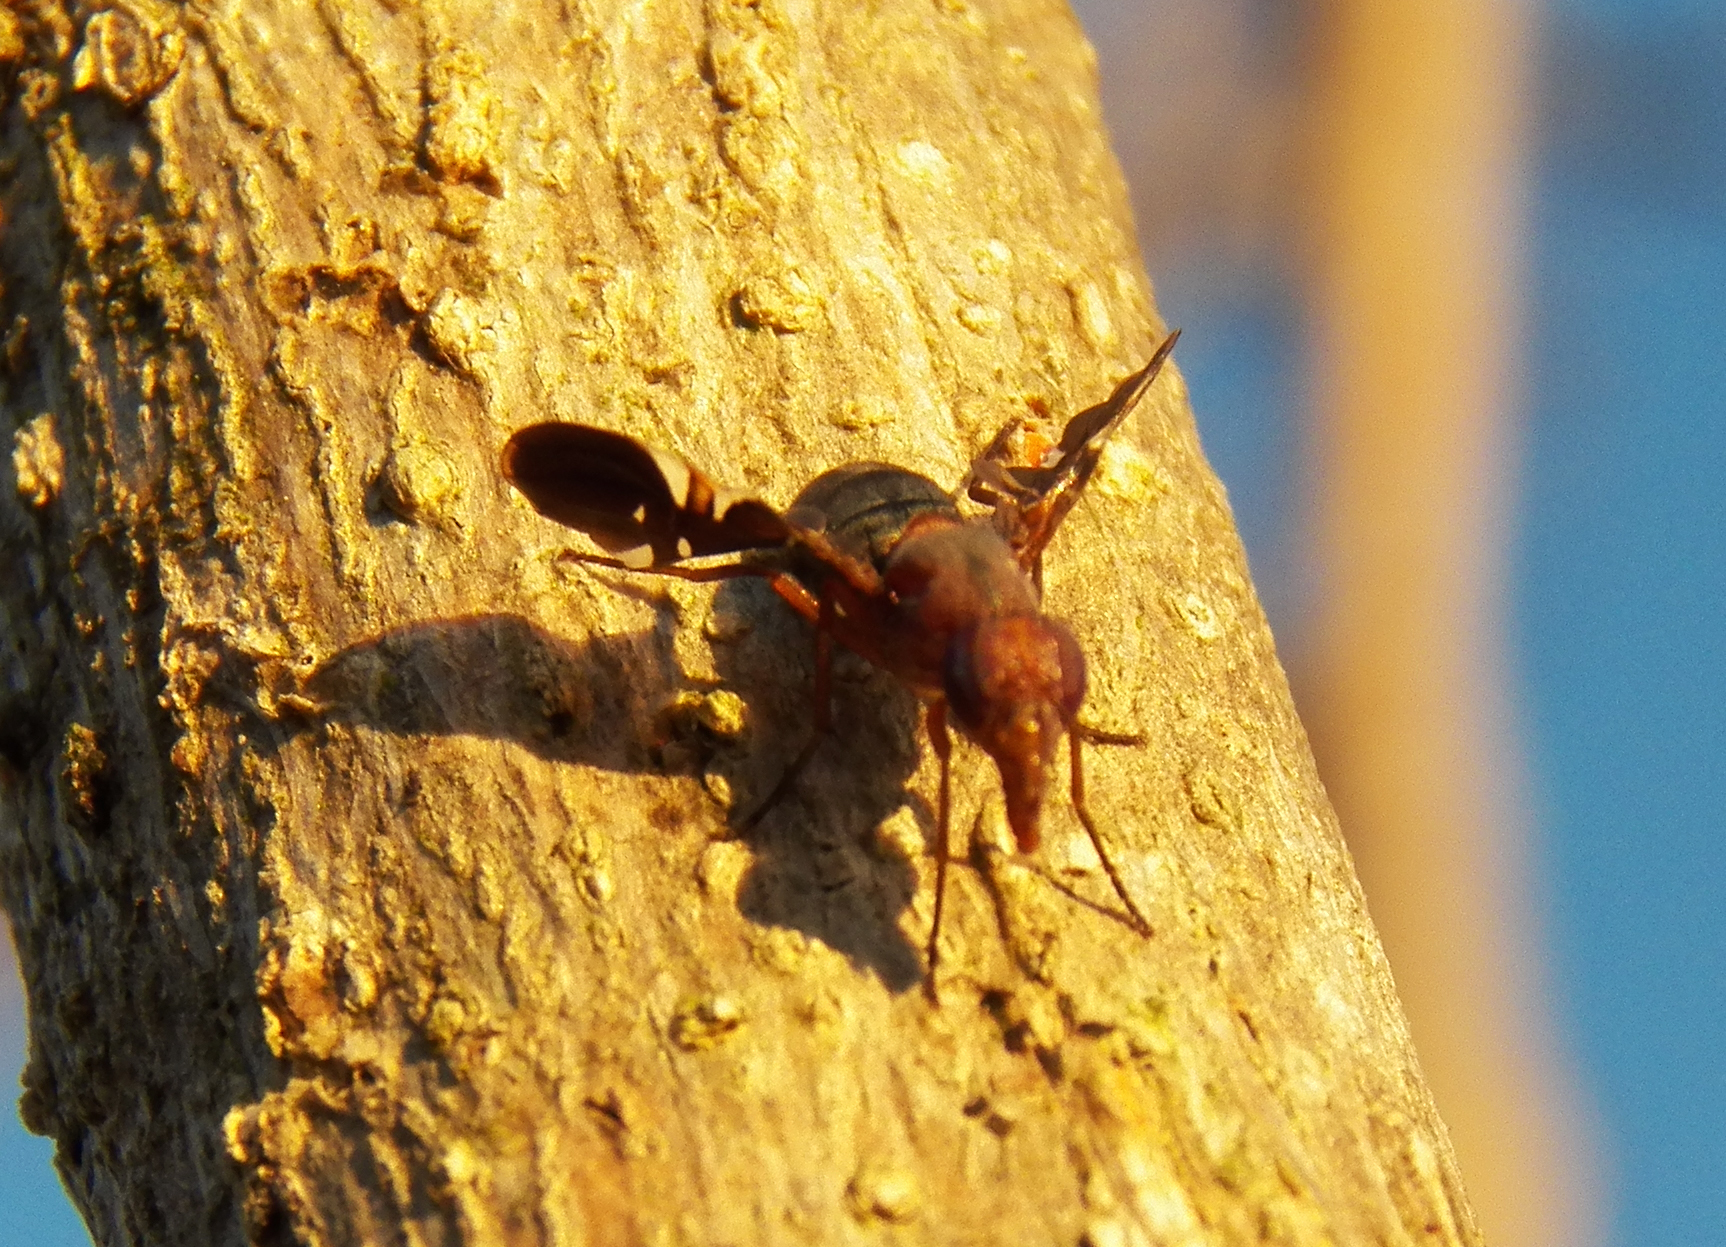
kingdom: Animalia
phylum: Arthropoda
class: Insecta
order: Diptera
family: Ulidiidae
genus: Delphinia
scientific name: Delphinia picta
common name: Common picture-winged fly
